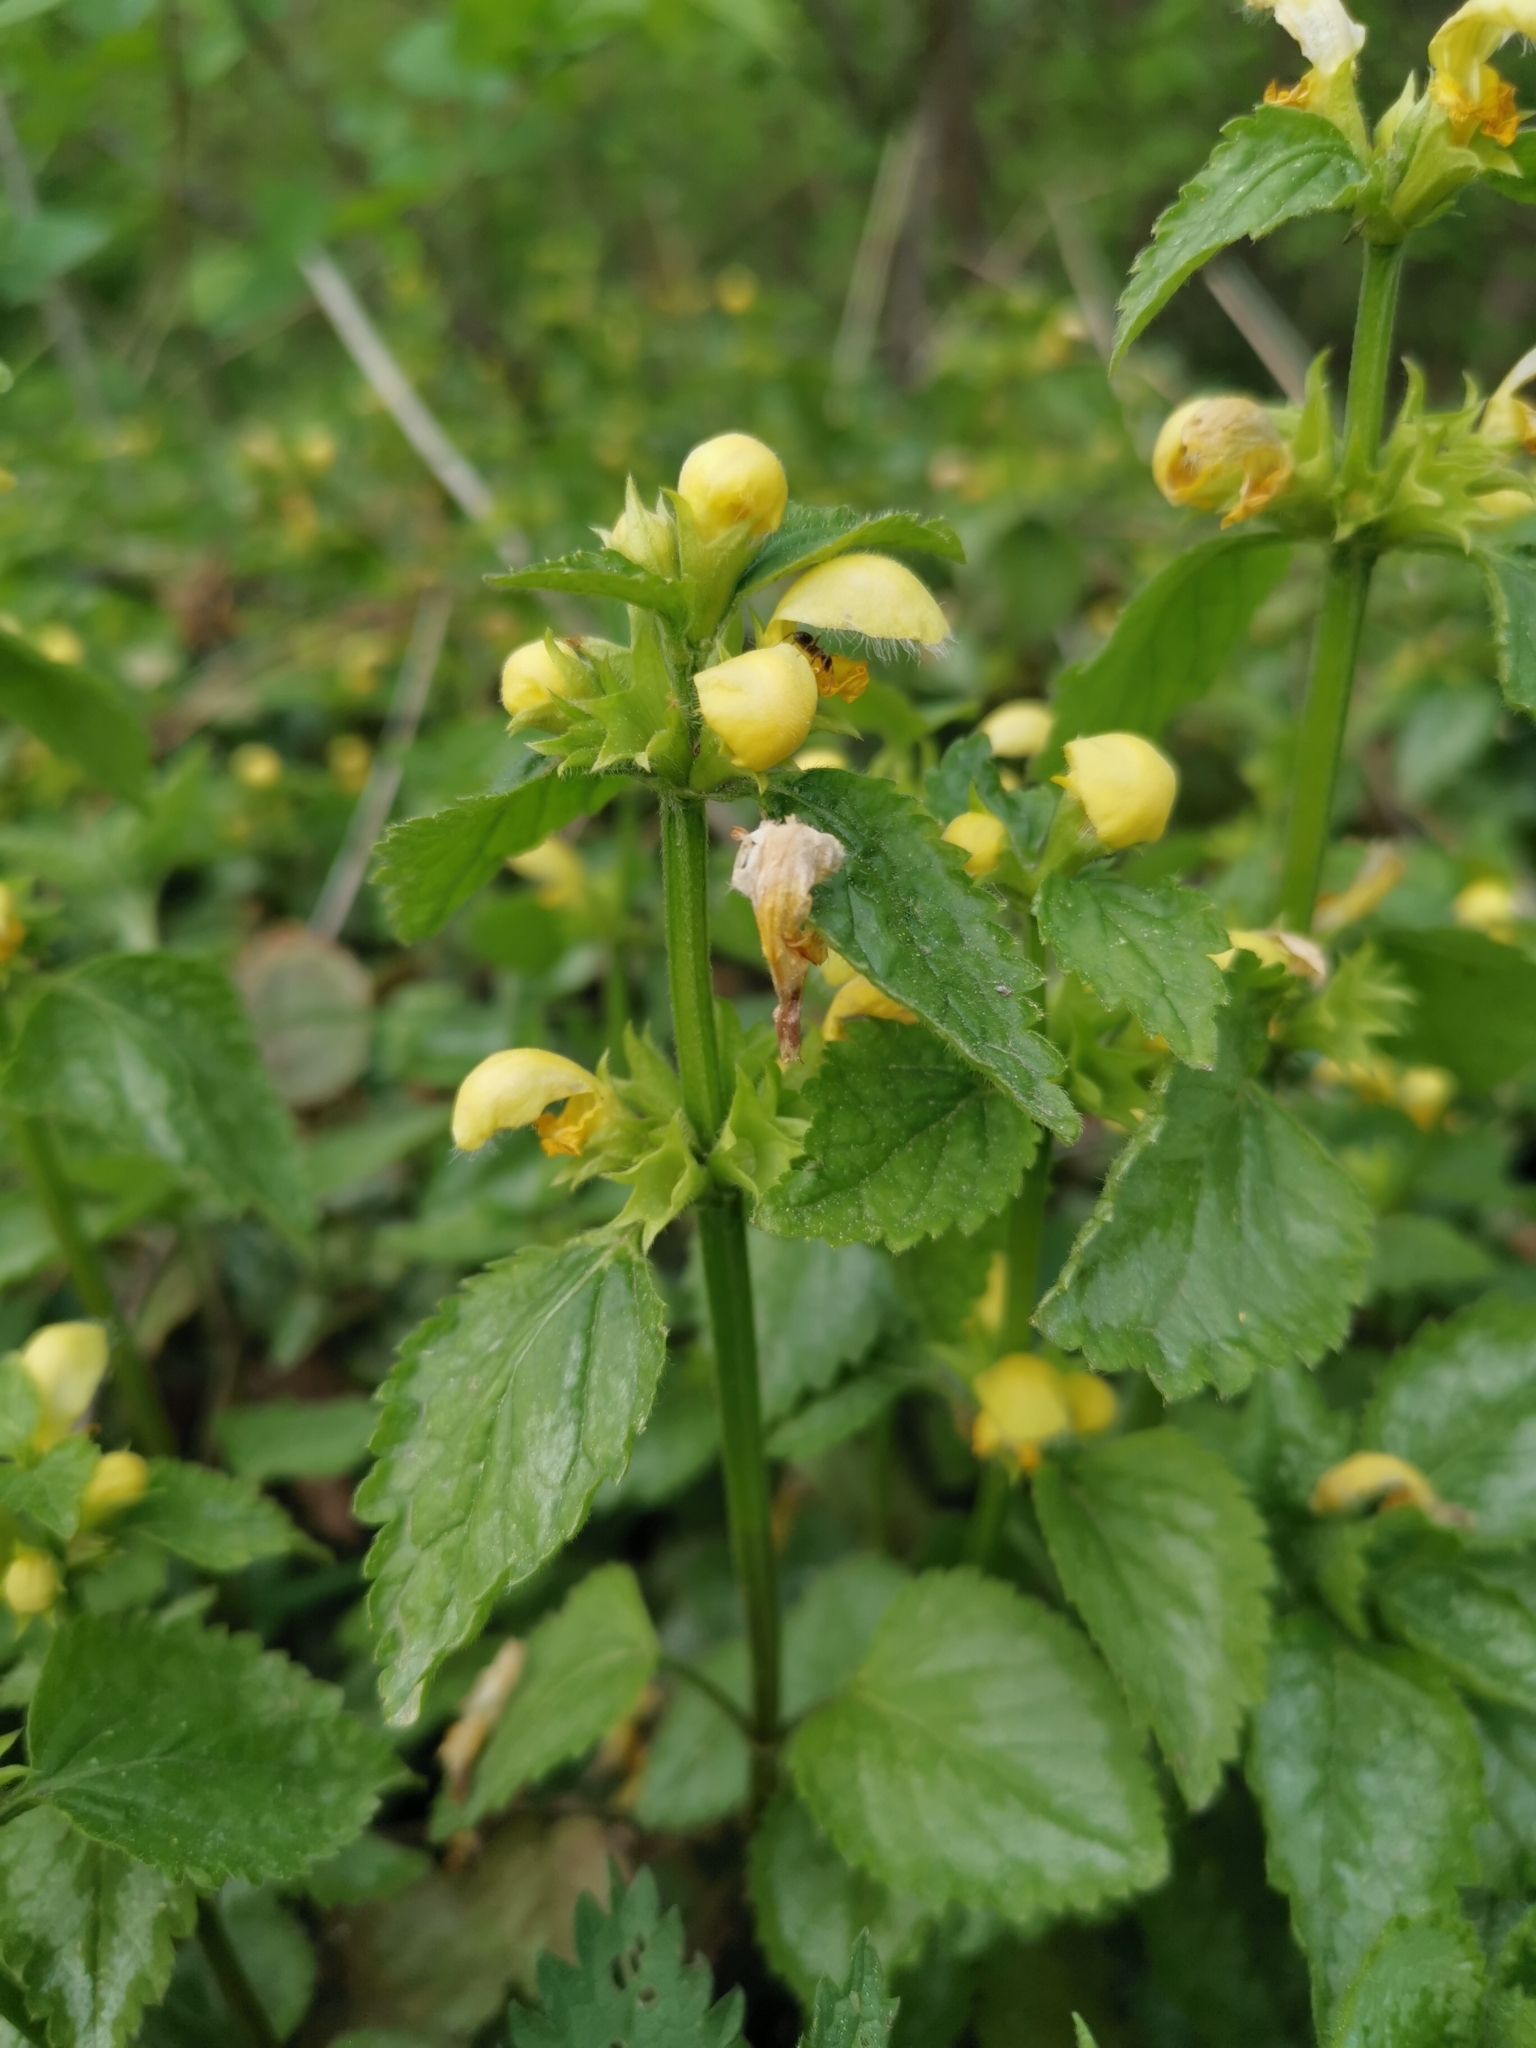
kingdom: Plantae
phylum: Tracheophyta
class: Magnoliopsida
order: Lamiales
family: Lamiaceae
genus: Lamium
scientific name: Lamium galeobdolon
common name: Yellow archangel
